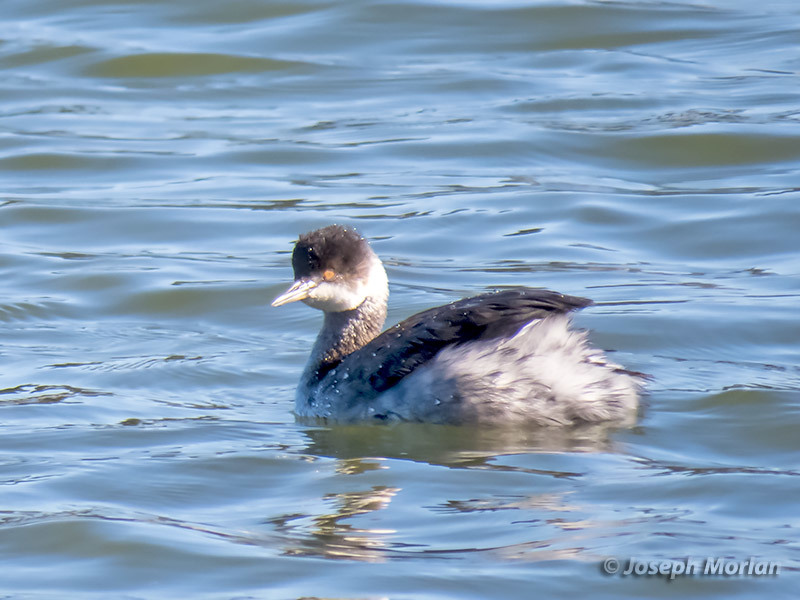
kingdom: Animalia
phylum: Chordata
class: Aves
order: Podicipediformes
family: Podicipedidae
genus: Podiceps
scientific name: Podiceps nigricollis
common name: Black-necked grebe
